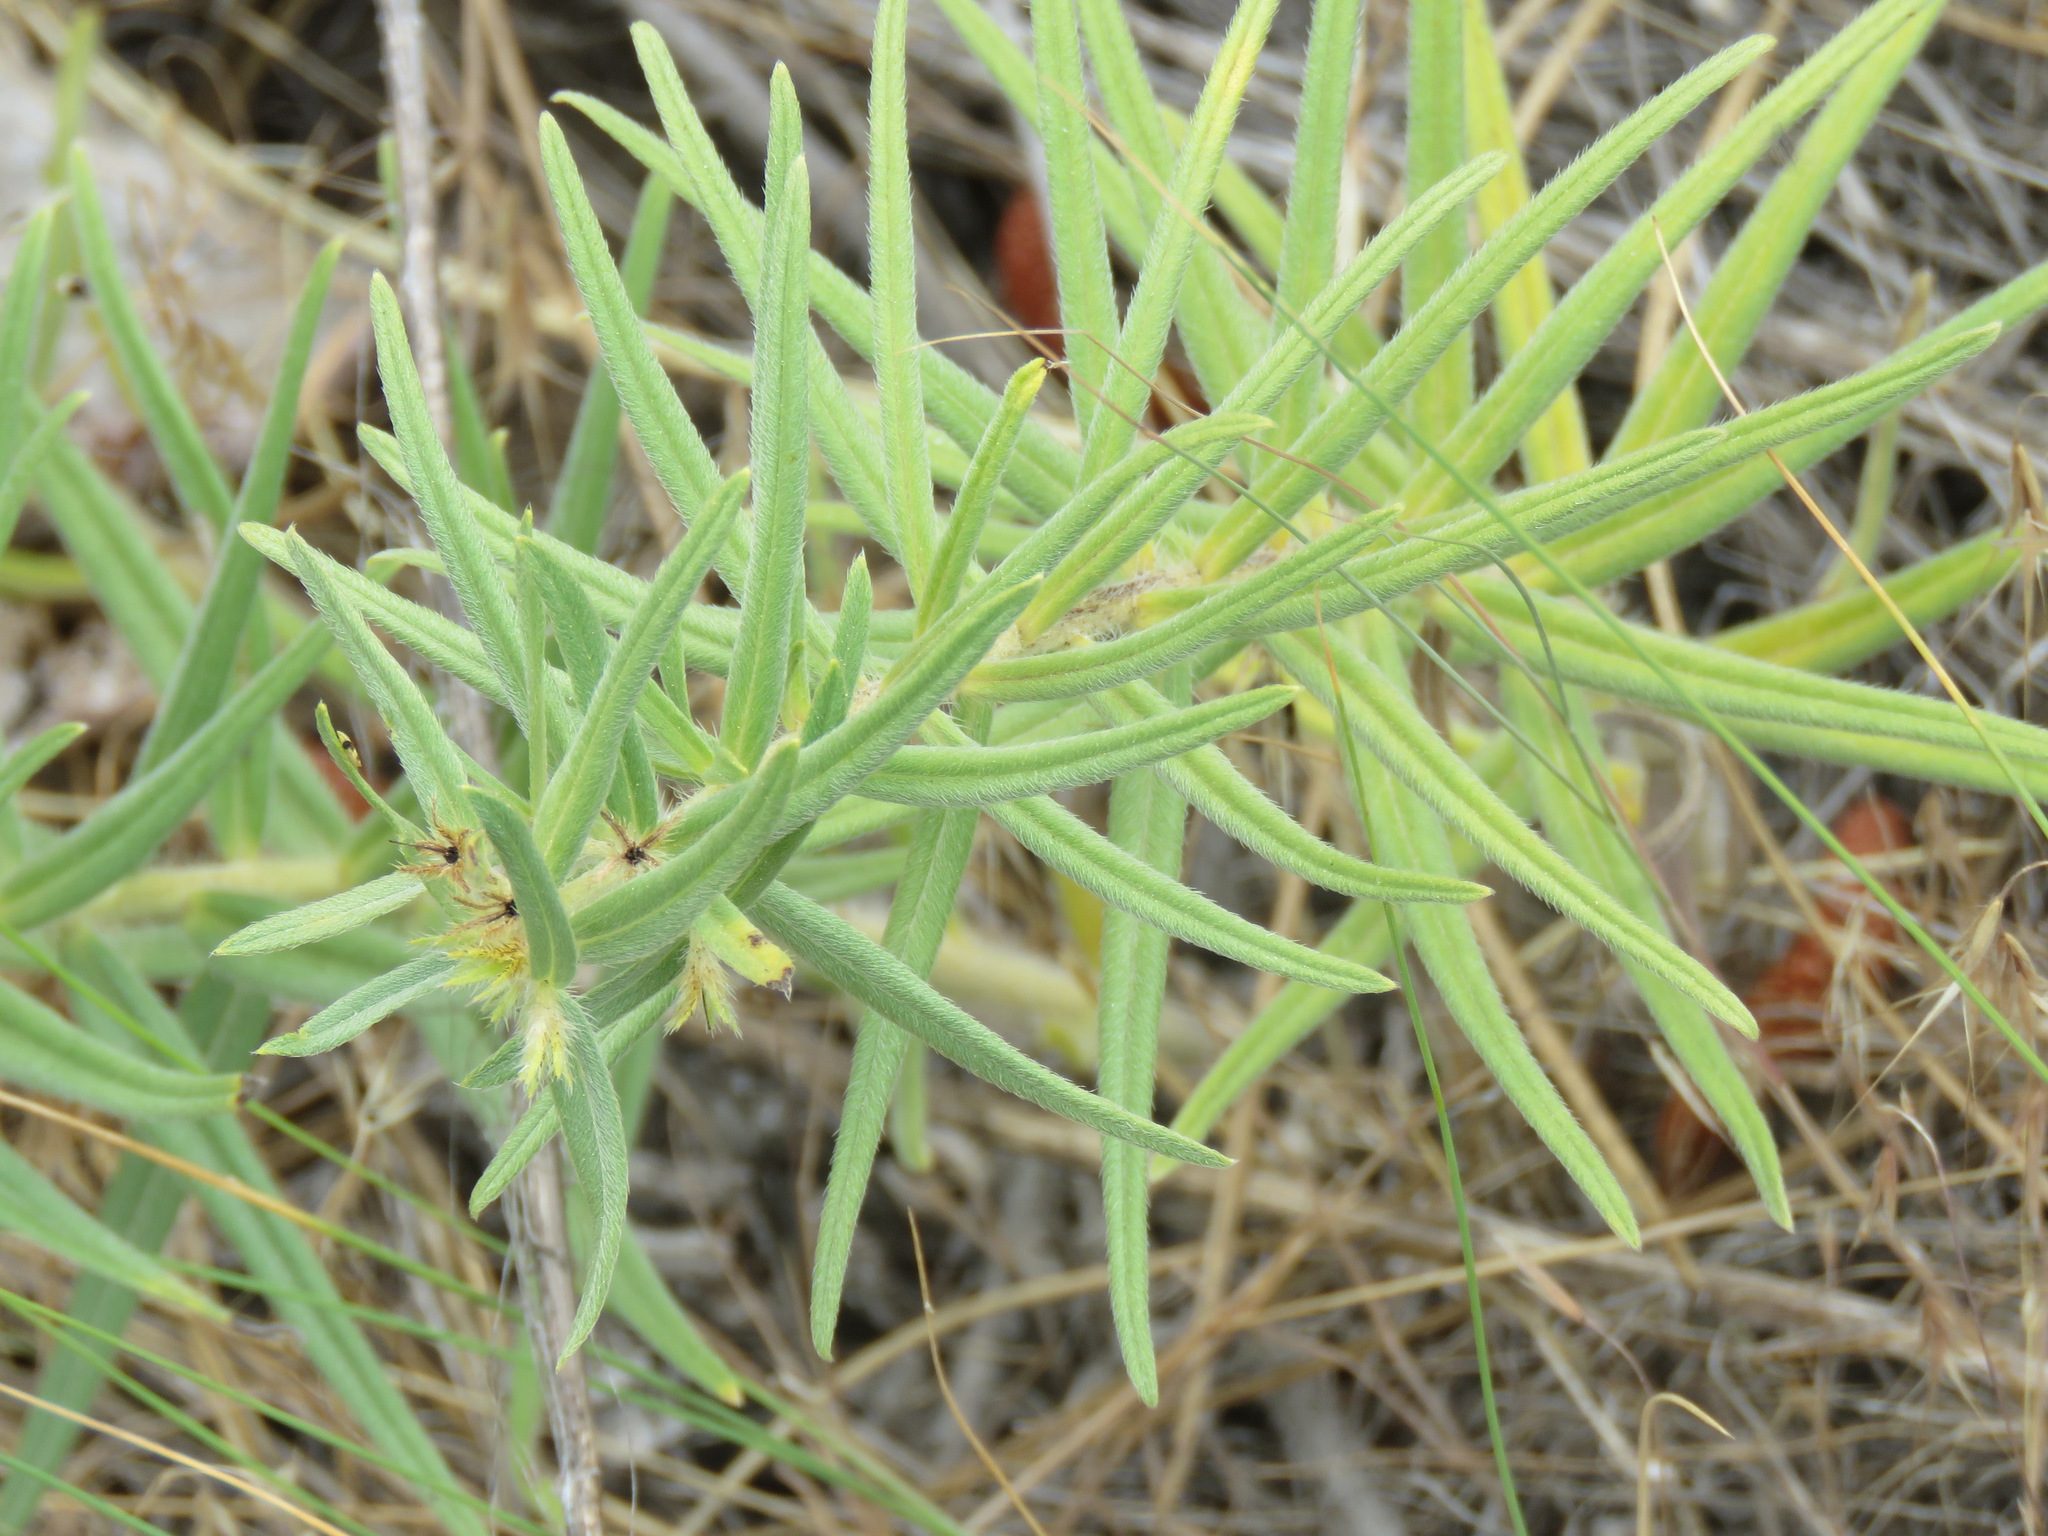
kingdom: Plantae
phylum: Tracheophyta
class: Magnoliopsida
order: Boraginales
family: Boraginaceae
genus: Lithospermum
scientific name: Lithospermum ruderale
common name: Western gromwell
